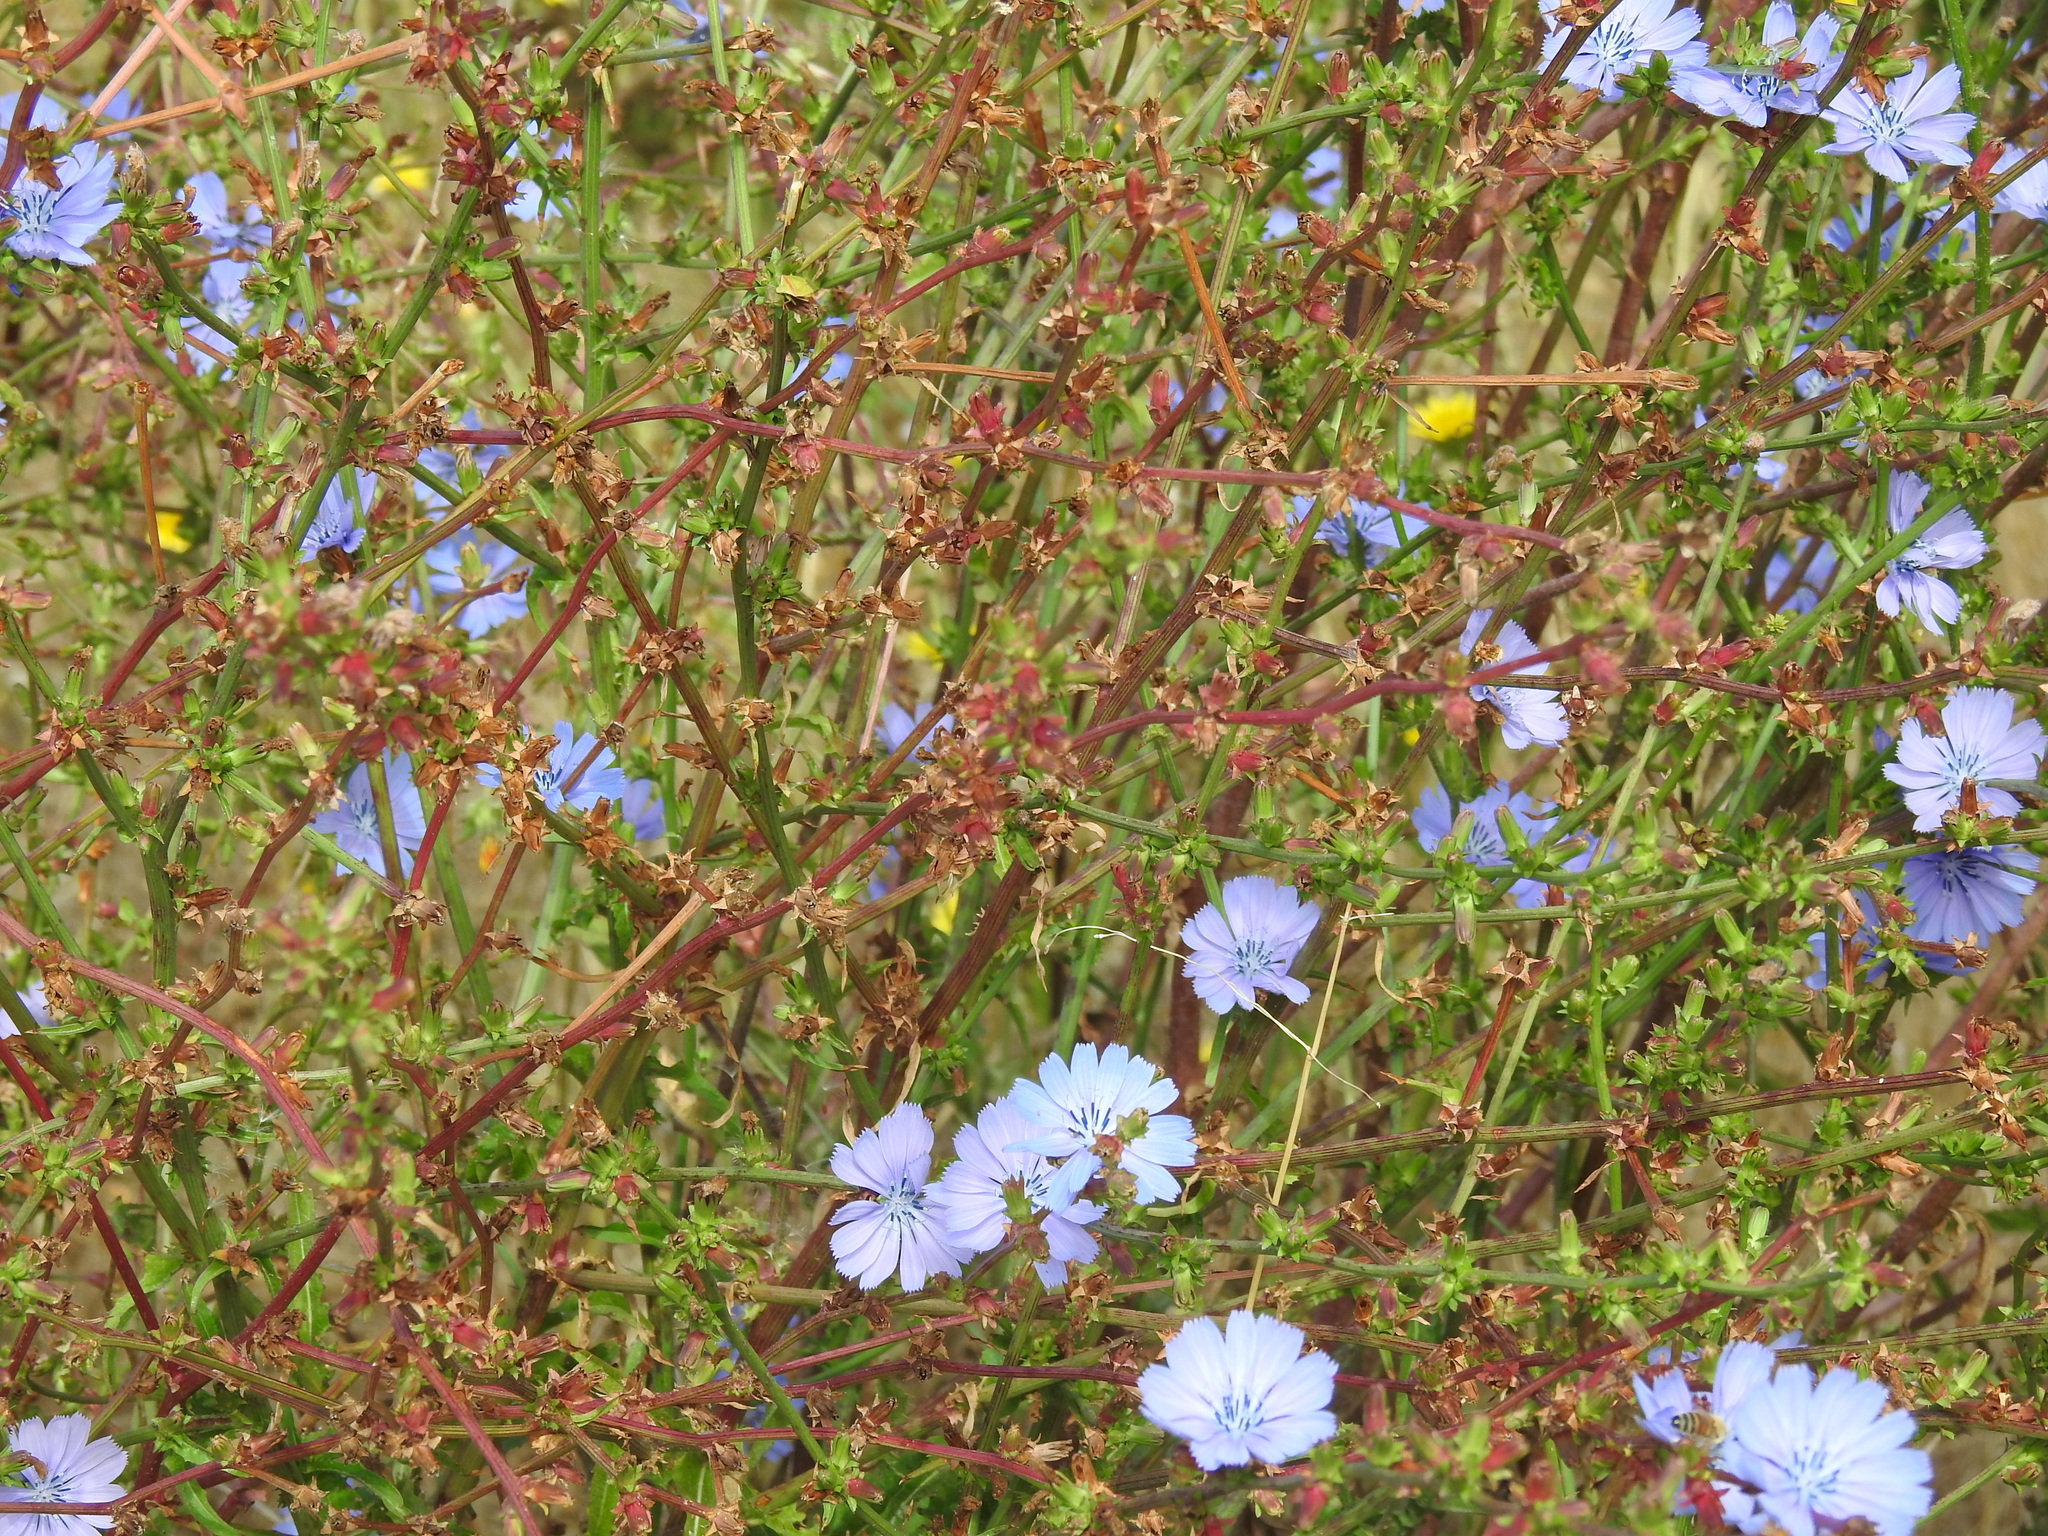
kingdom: Plantae
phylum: Tracheophyta
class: Magnoliopsida
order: Asterales
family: Asteraceae
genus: Cichorium
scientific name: Cichorium intybus
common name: Chicory
